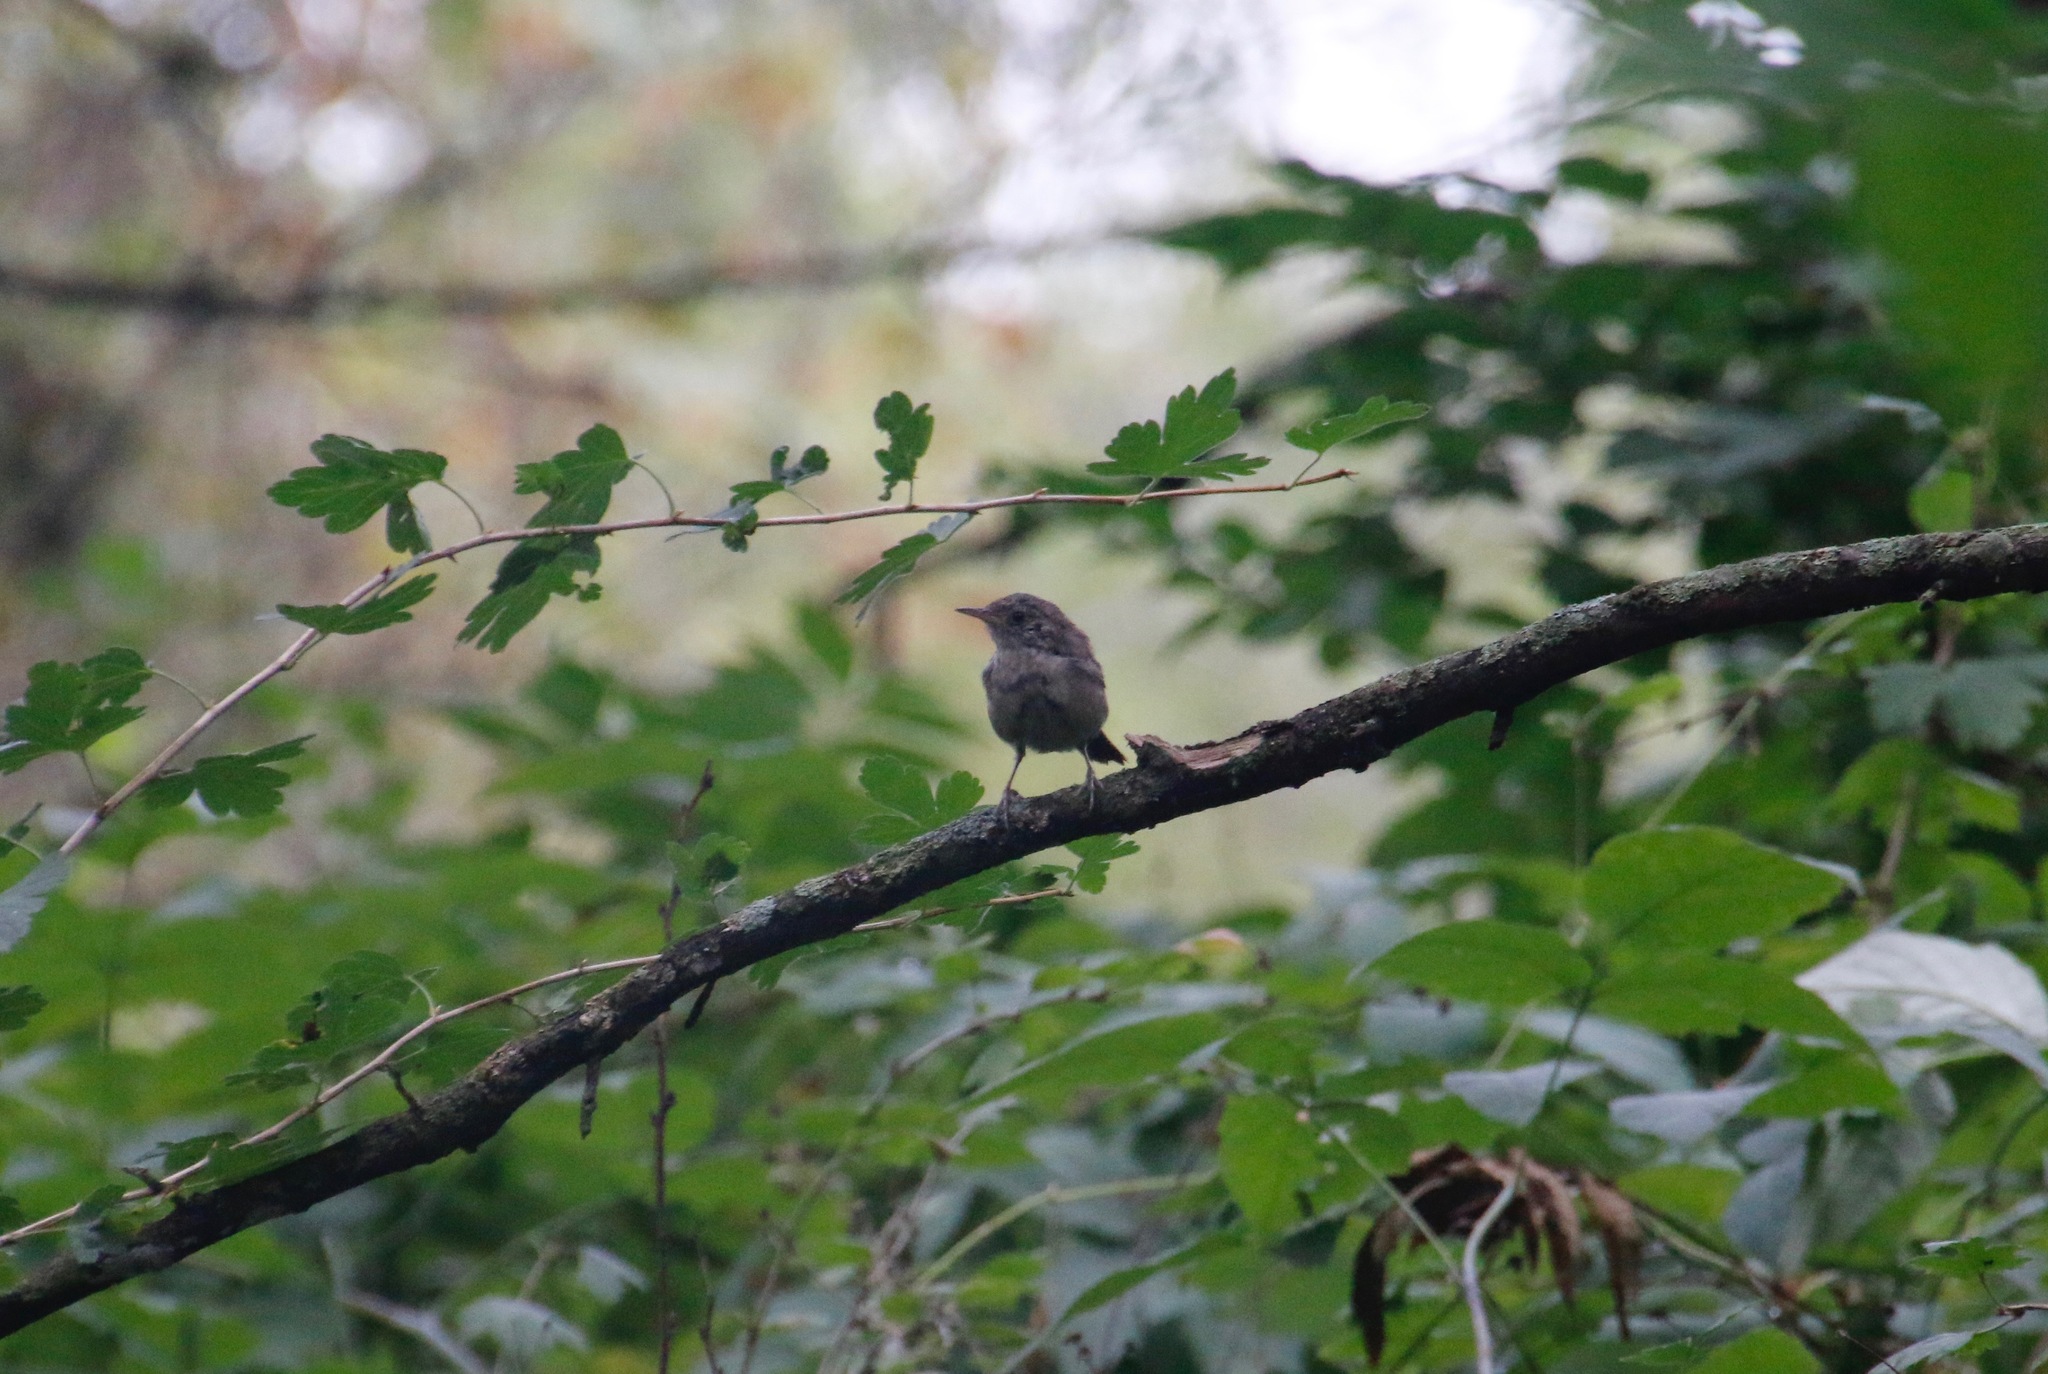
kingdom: Animalia
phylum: Chordata
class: Aves
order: Passeriformes
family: Troglodytidae
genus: Troglodytes
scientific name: Troglodytes aedon
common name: House wren
